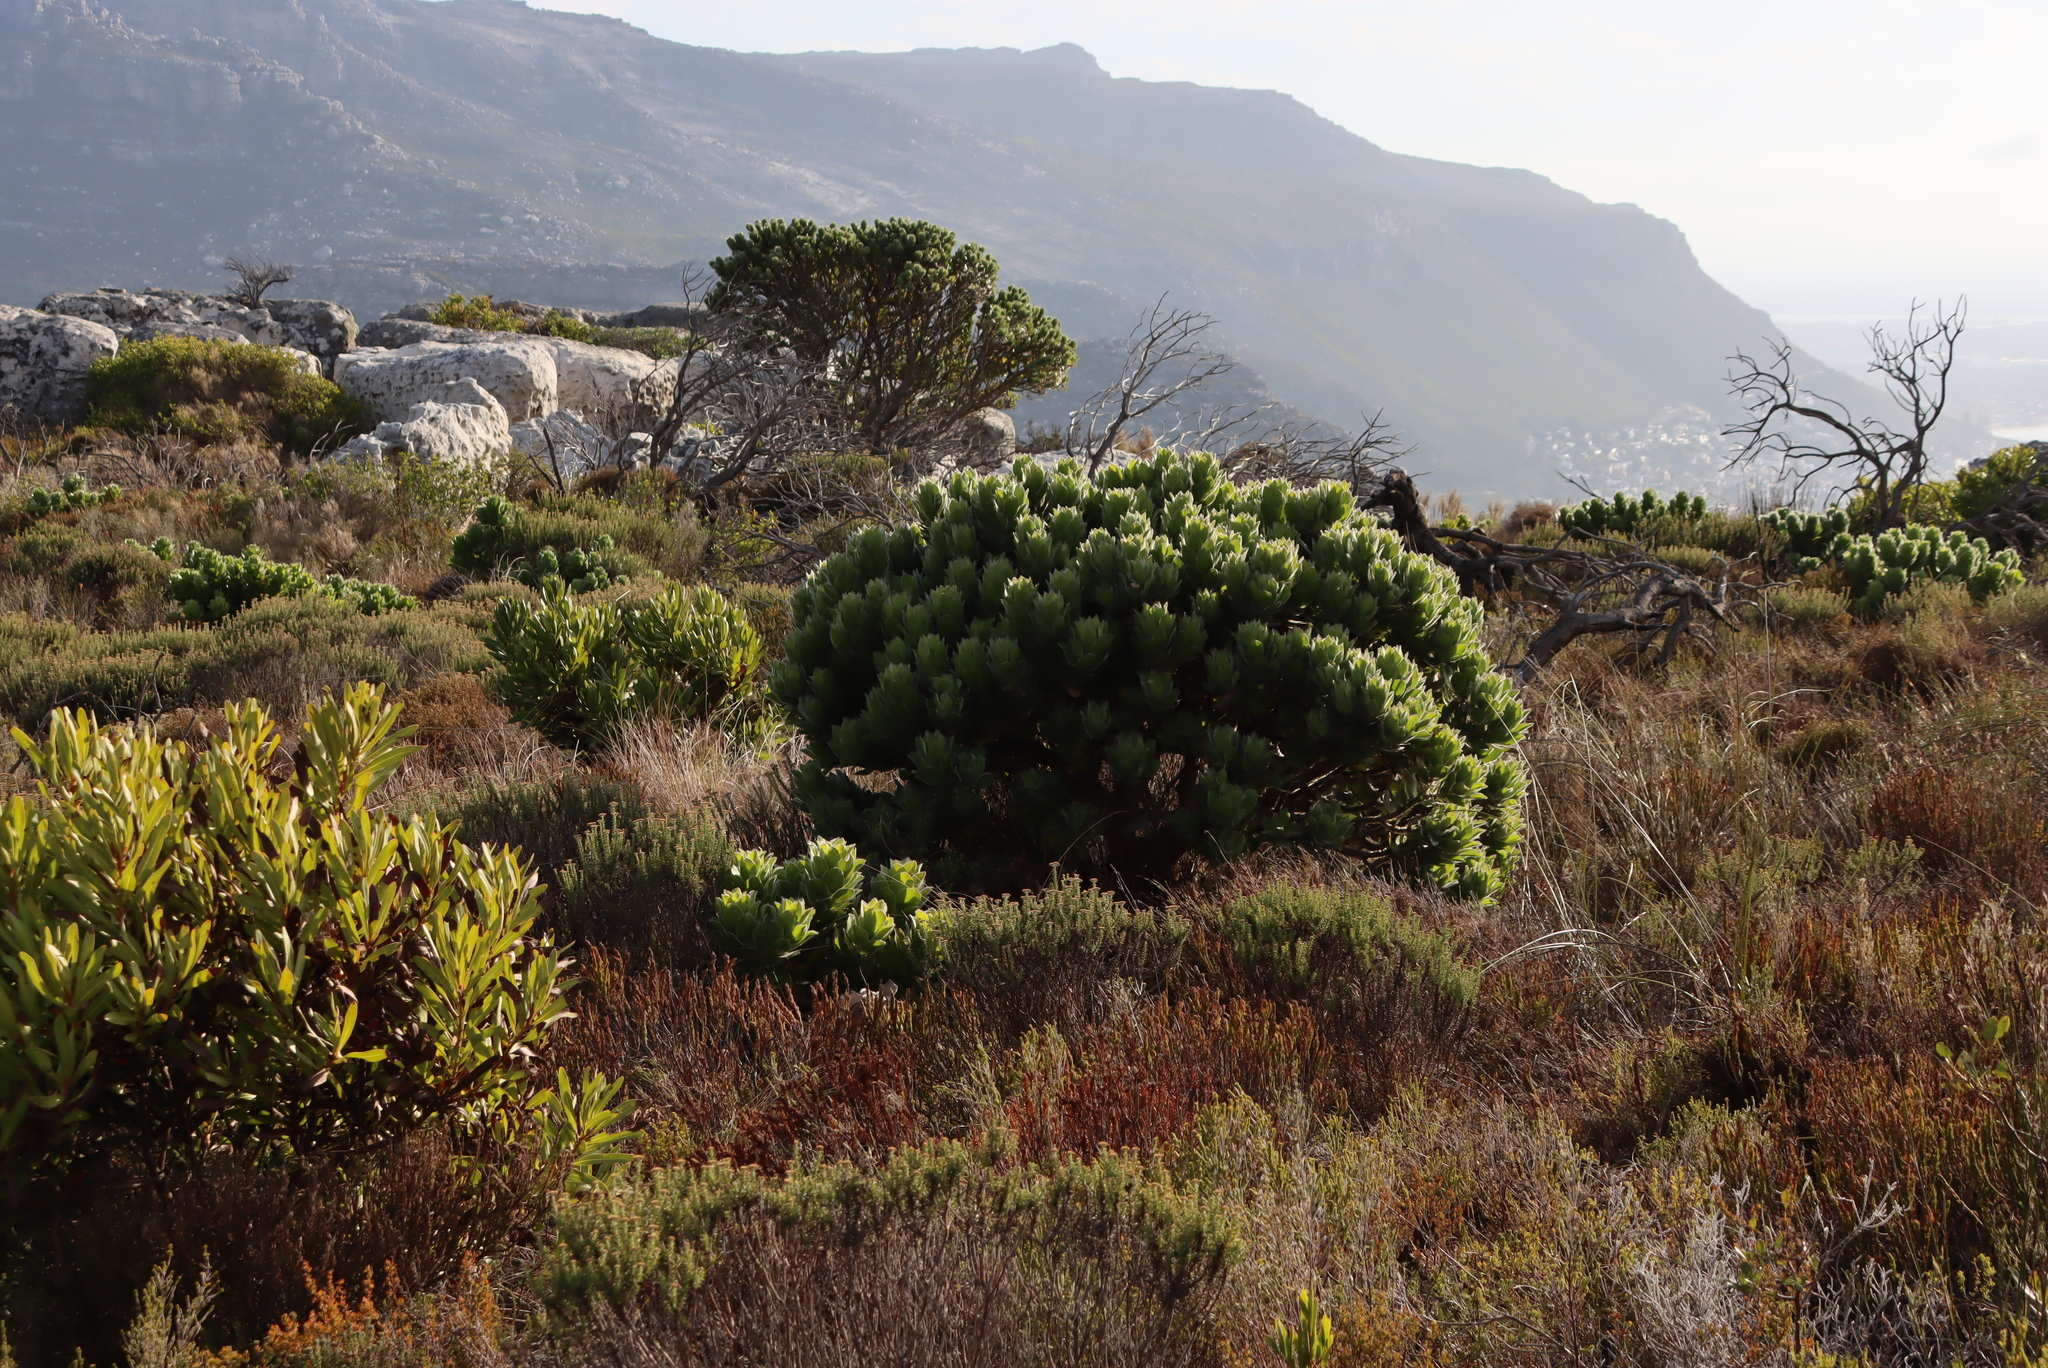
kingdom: Plantae
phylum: Tracheophyta
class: Magnoliopsida
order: Proteales
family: Proteaceae
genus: Leucospermum
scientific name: Leucospermum conocarpodendron
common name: Tree pincushion
